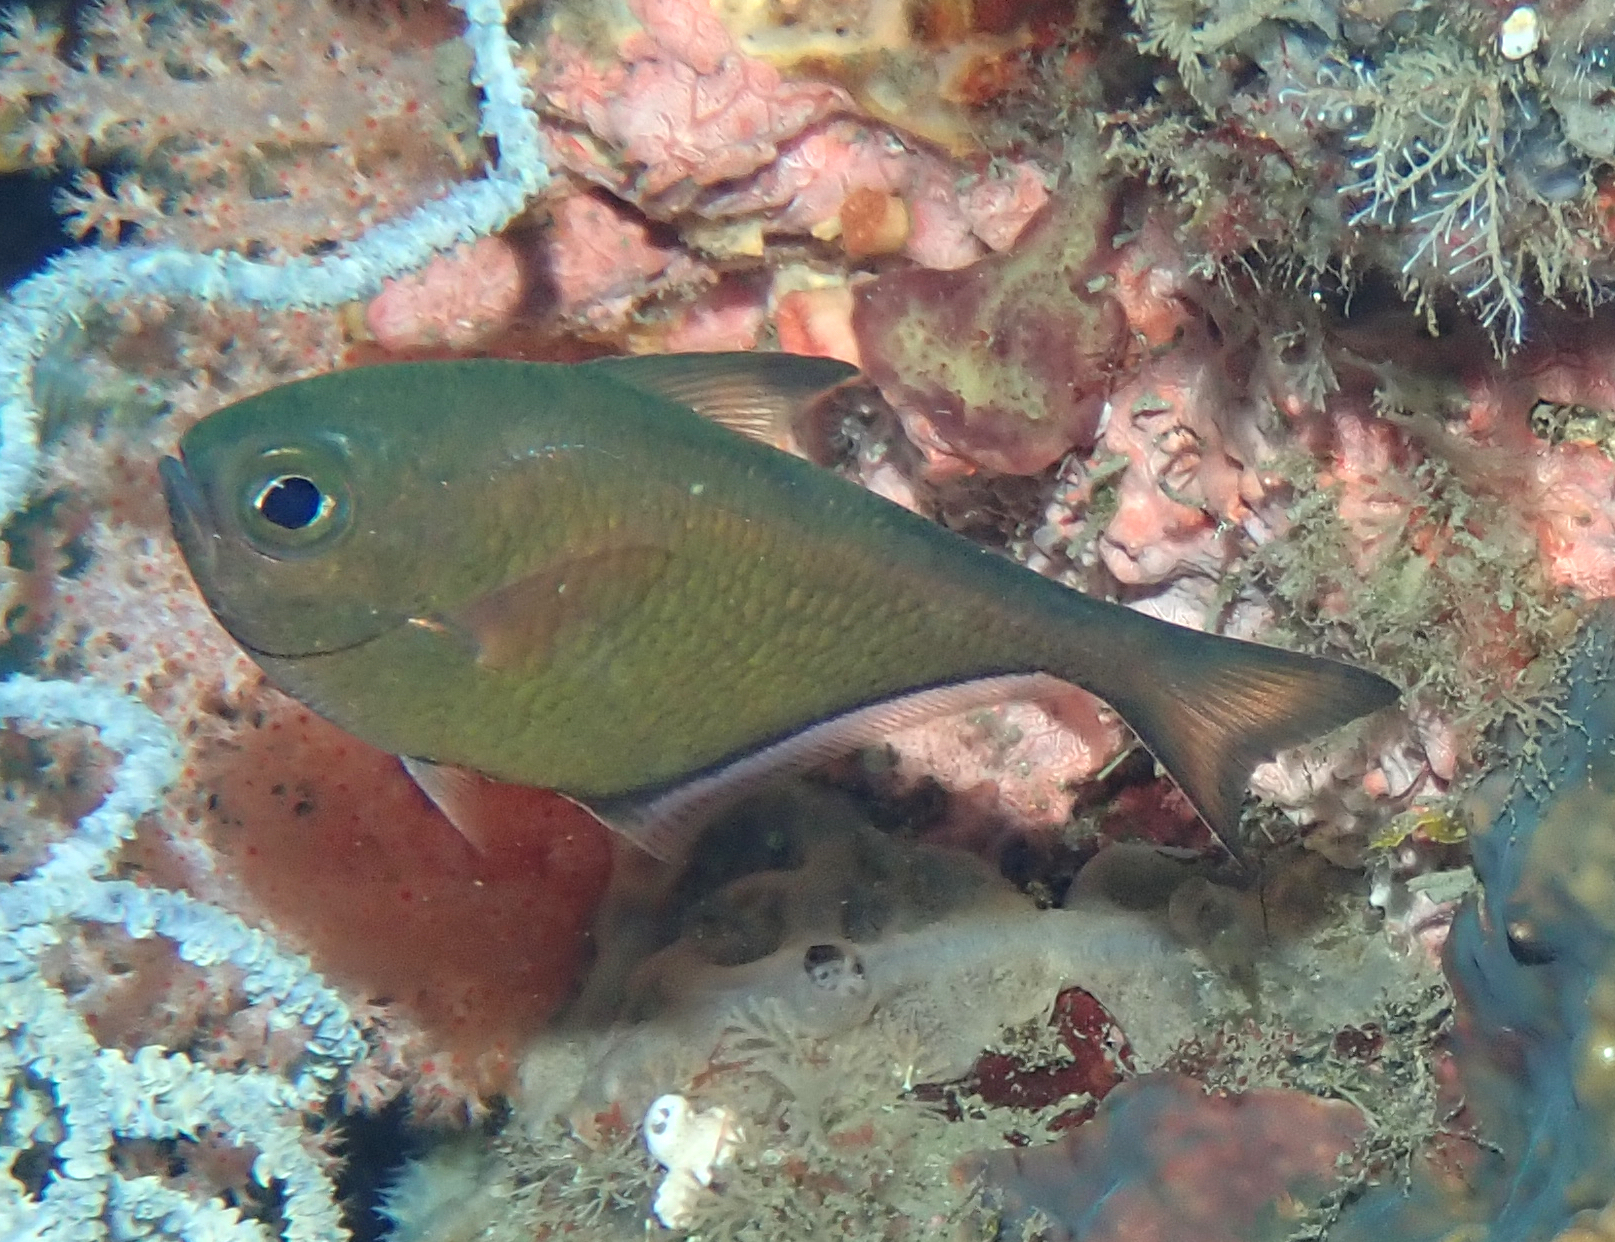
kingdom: Animalia
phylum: Chordata
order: Perciformes
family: Pempheridae
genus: Pempheris
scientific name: Pempheris schwenkii
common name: Silver bullseye
